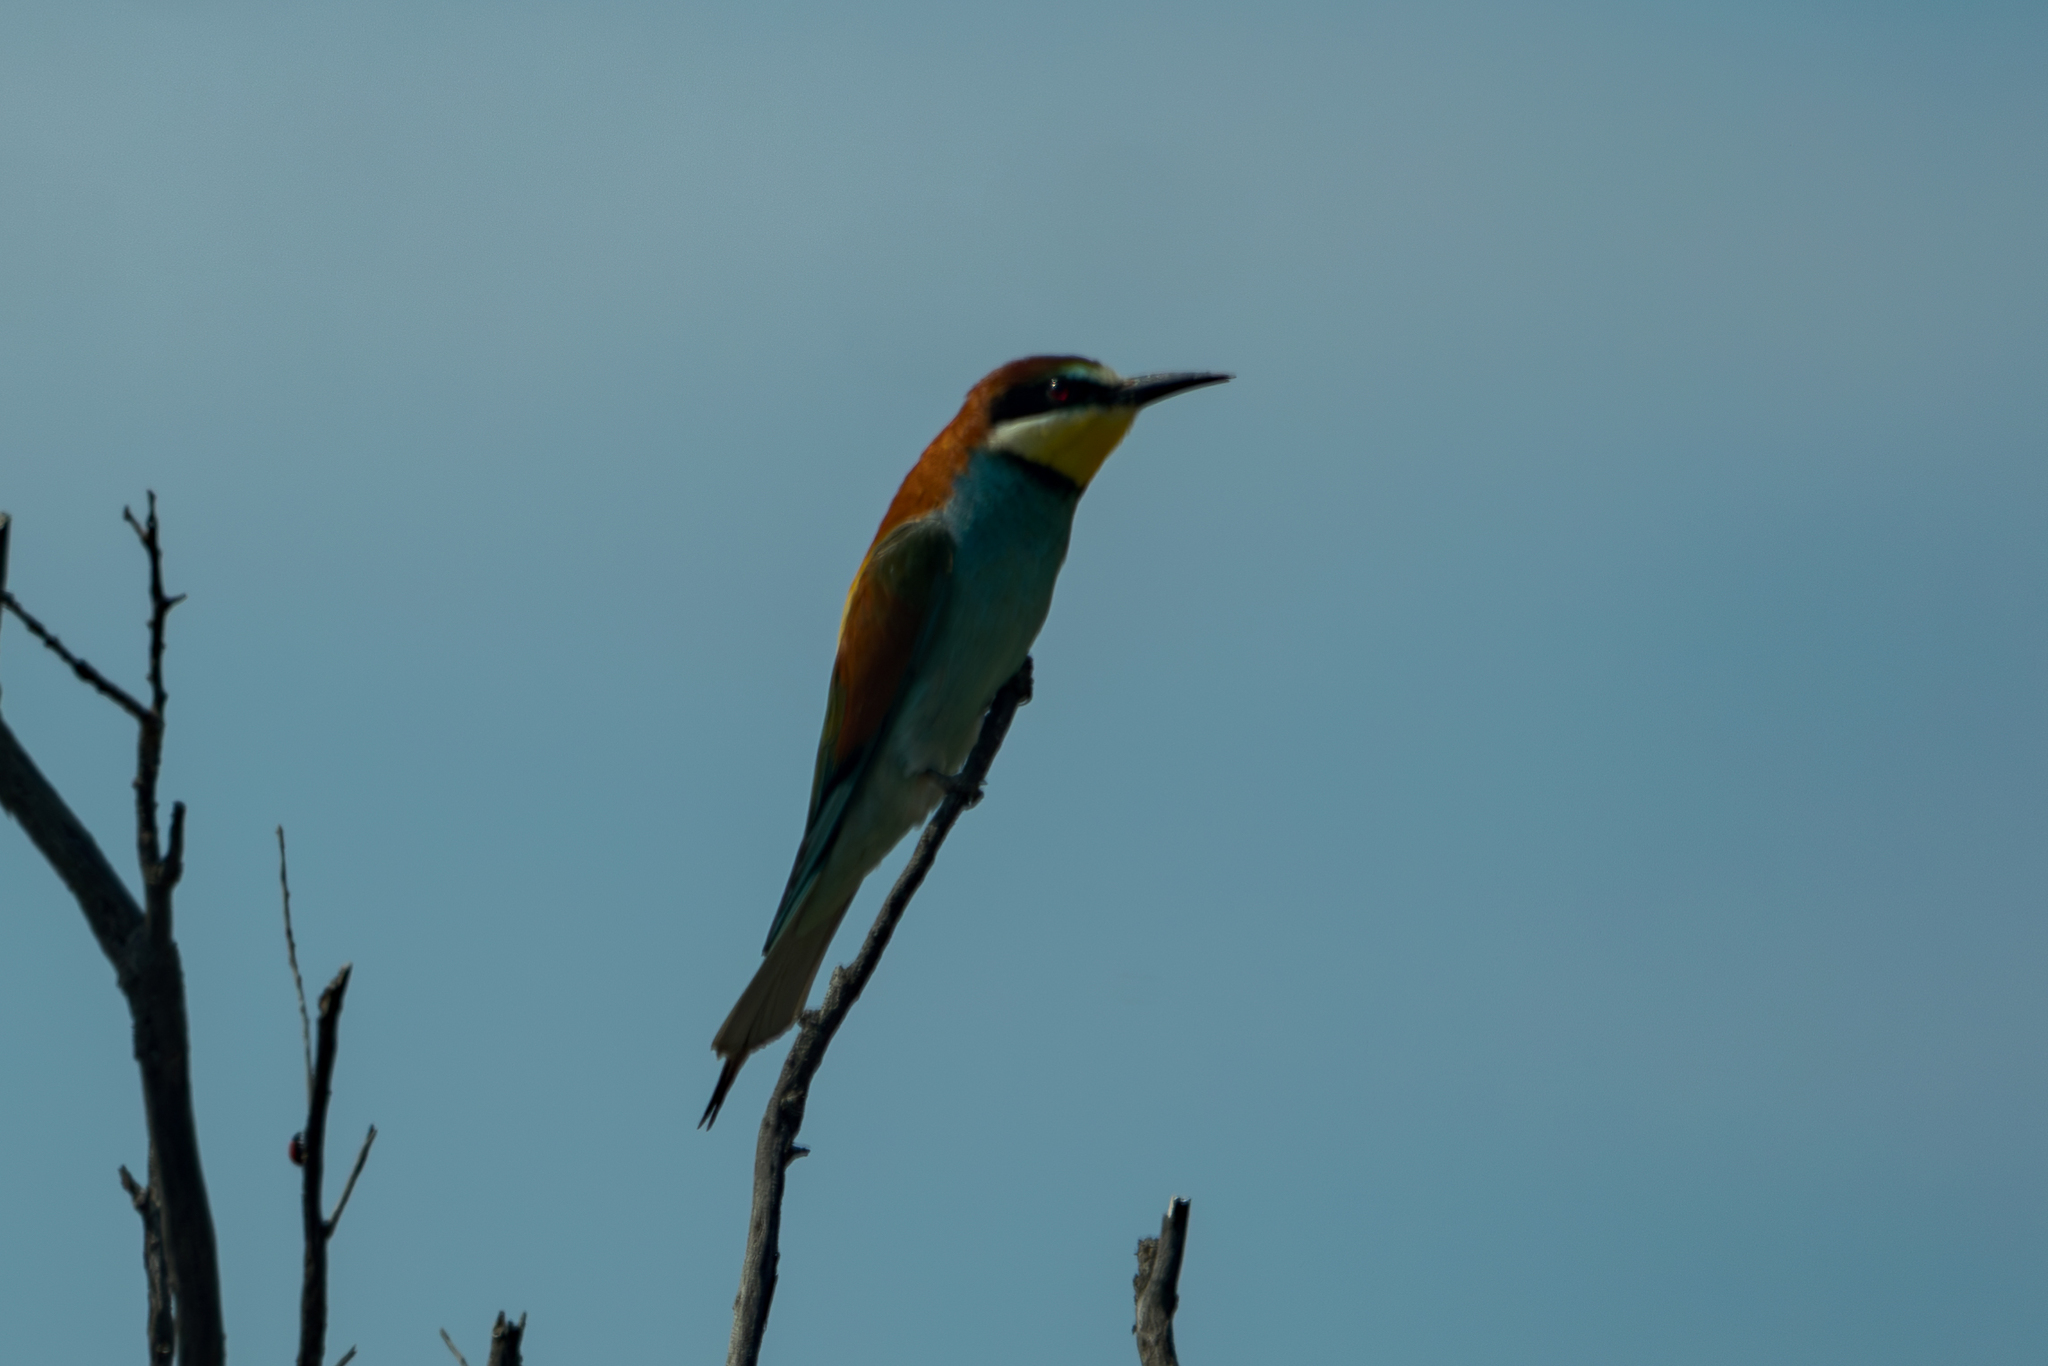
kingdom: Animalia
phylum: Chordata
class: Aves
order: Coraciiformes
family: Meropidae
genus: Merops
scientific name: Merops apiaster
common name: European bee-eater
